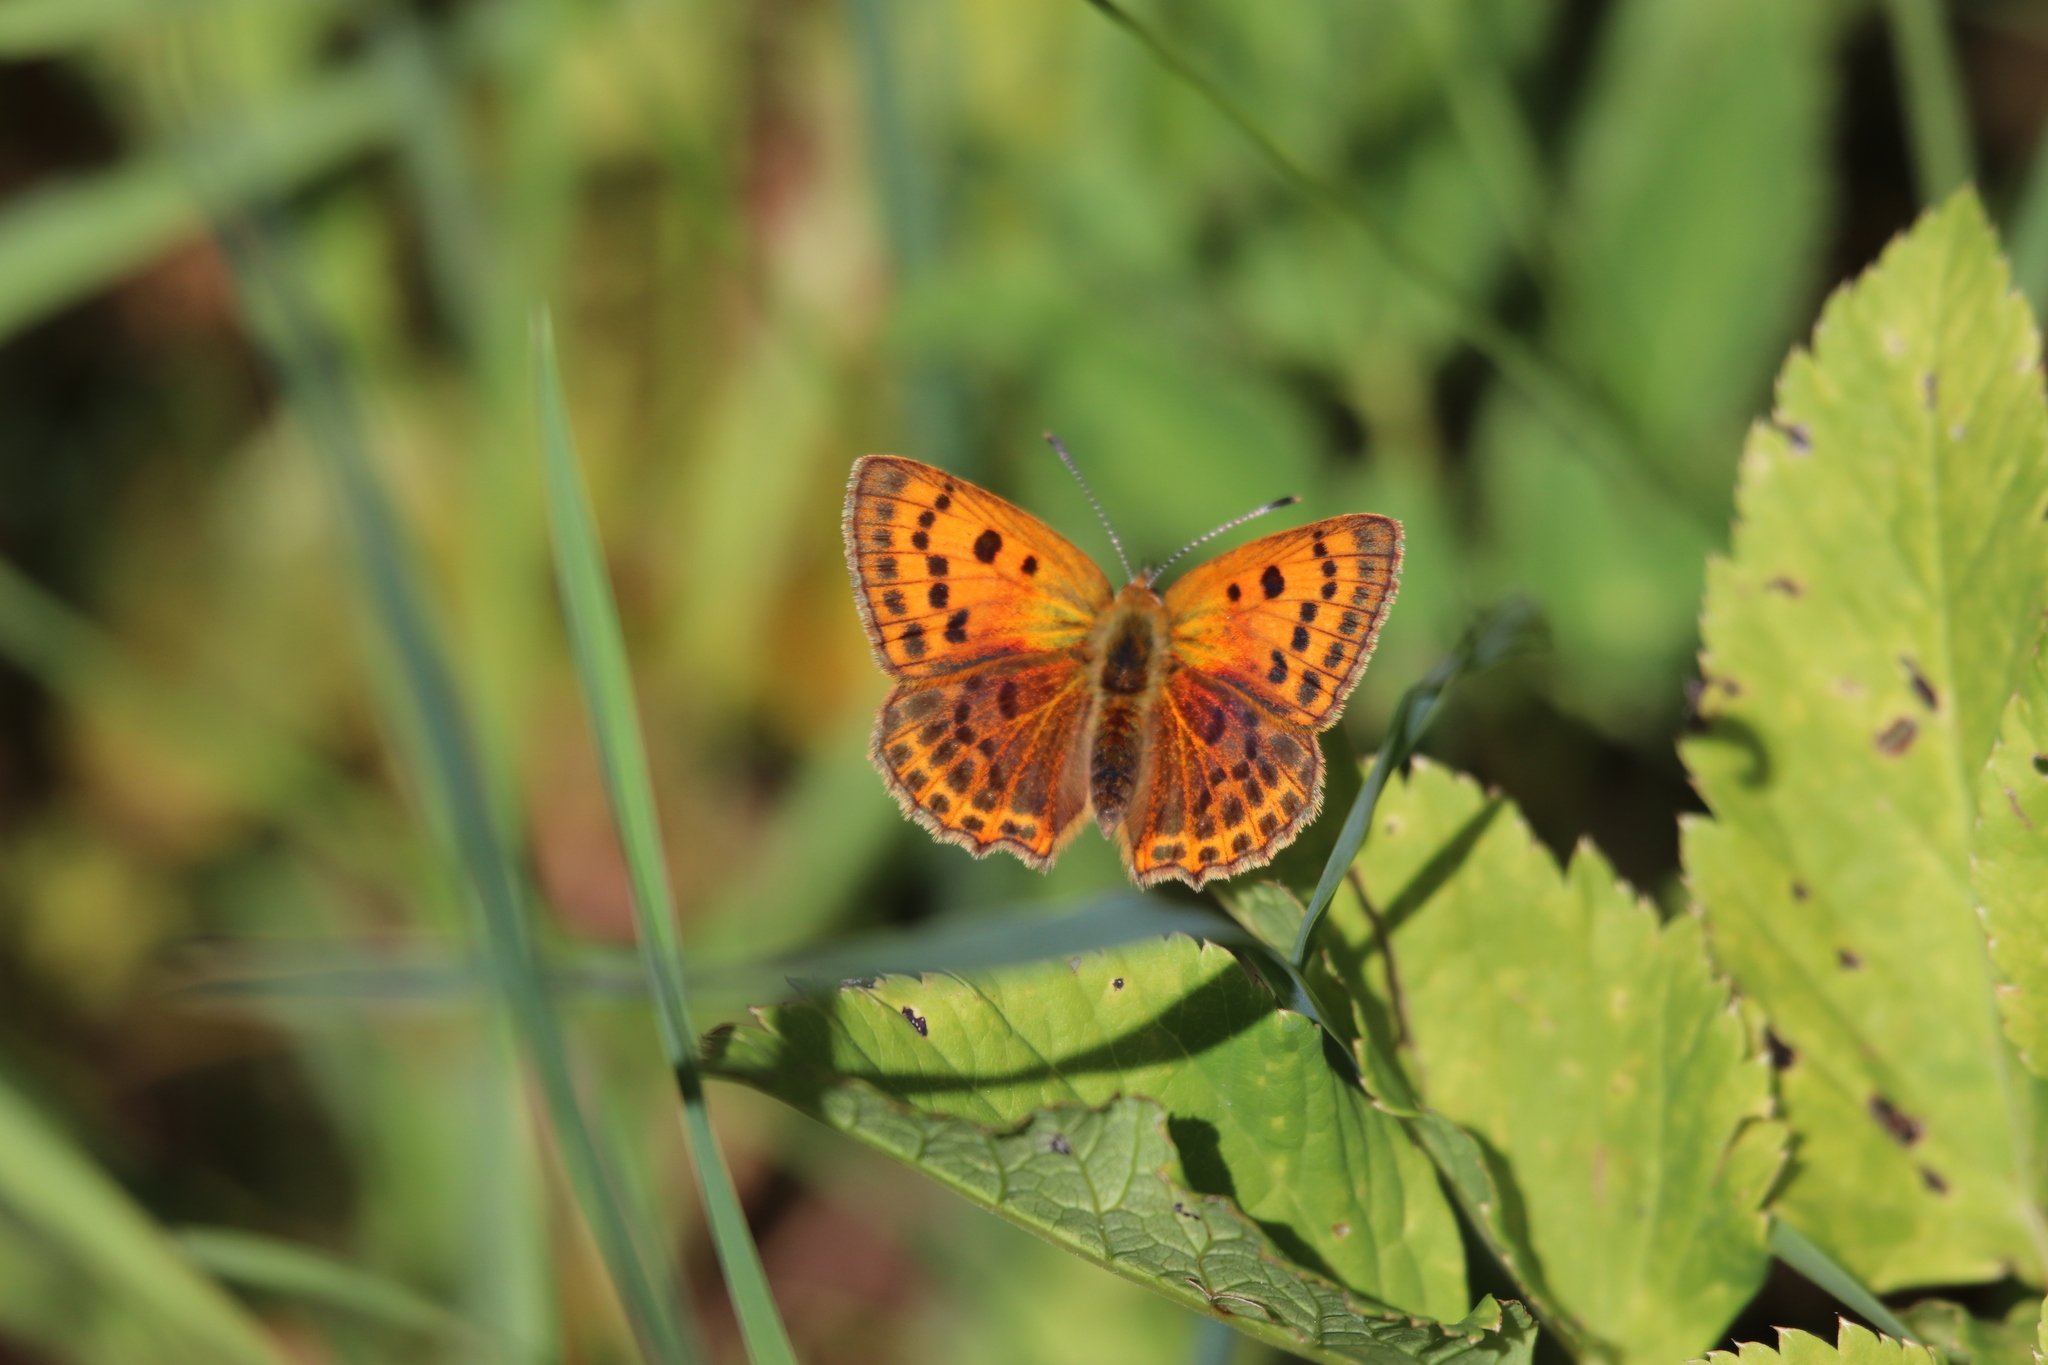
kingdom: Animalia
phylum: Arthropoda
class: Insecta
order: Lepidoptera
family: Lycaenidae
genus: Lycaena
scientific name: Lycaena virgaureae
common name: Scarce copper
